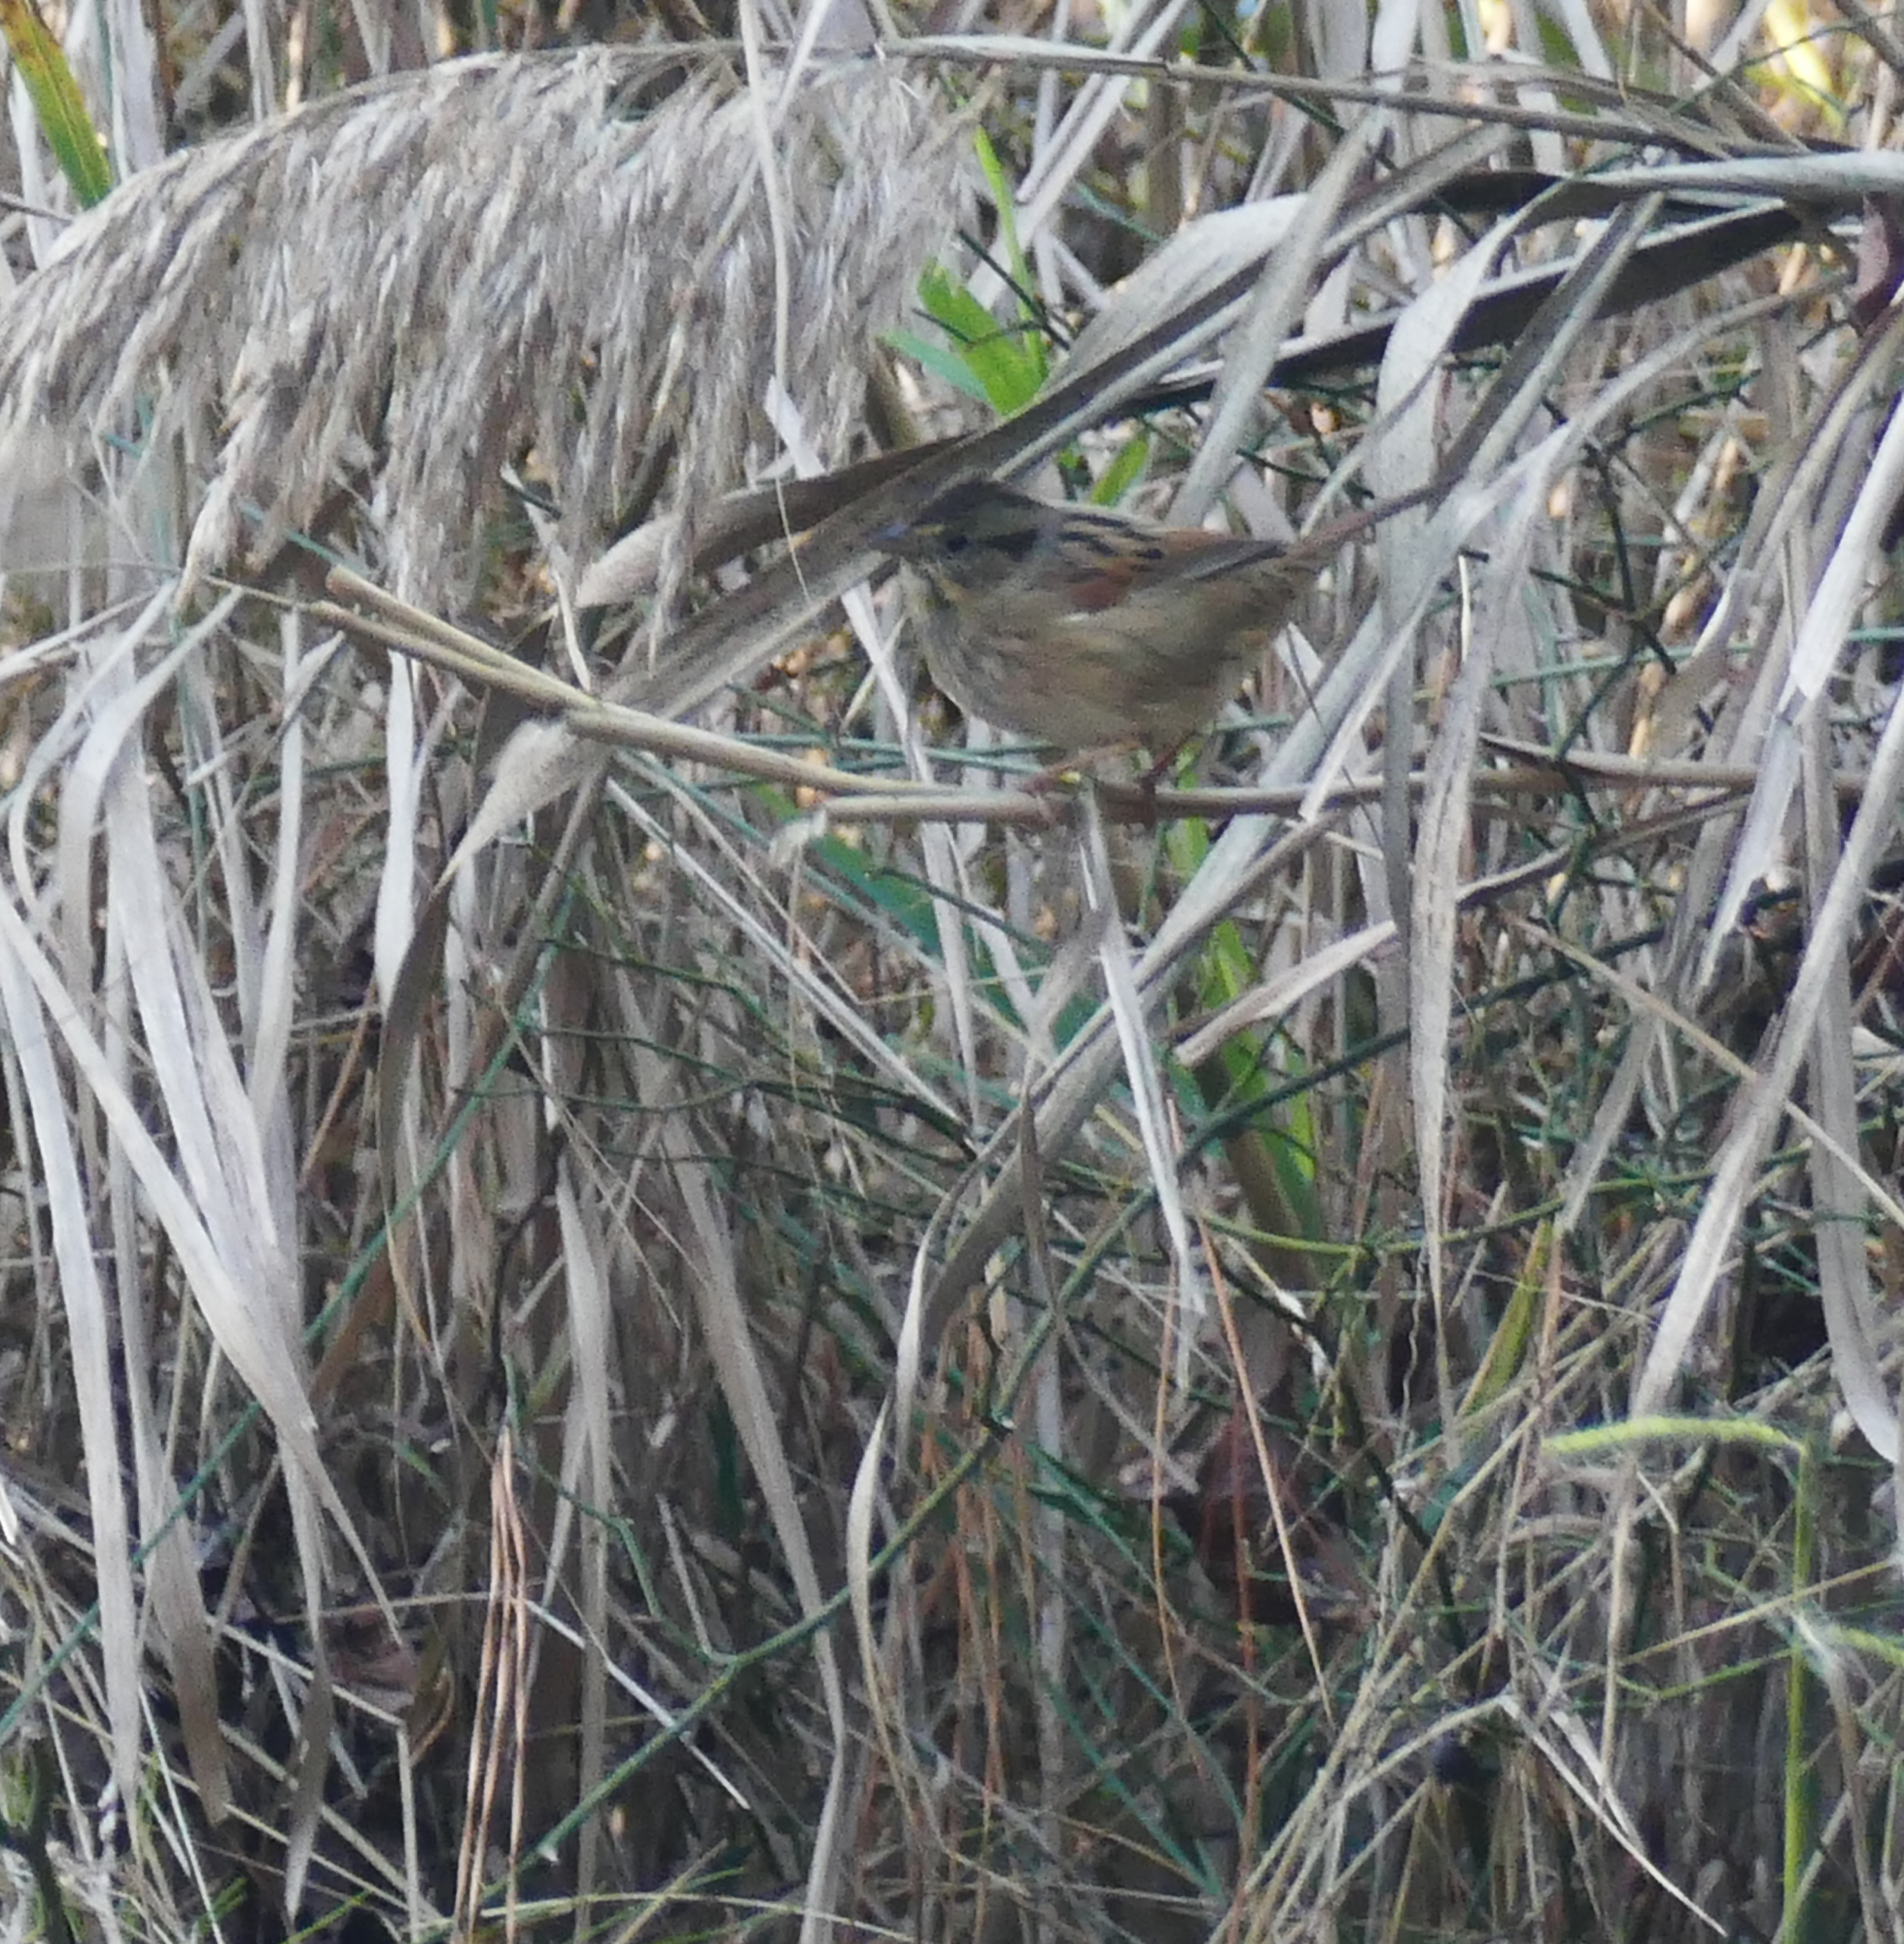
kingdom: Animalia
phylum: Chordata
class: Aves
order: Passeriformes
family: Passerellidae
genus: Melospiza
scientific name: Melospiza georgiana
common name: Swamp sparrow
